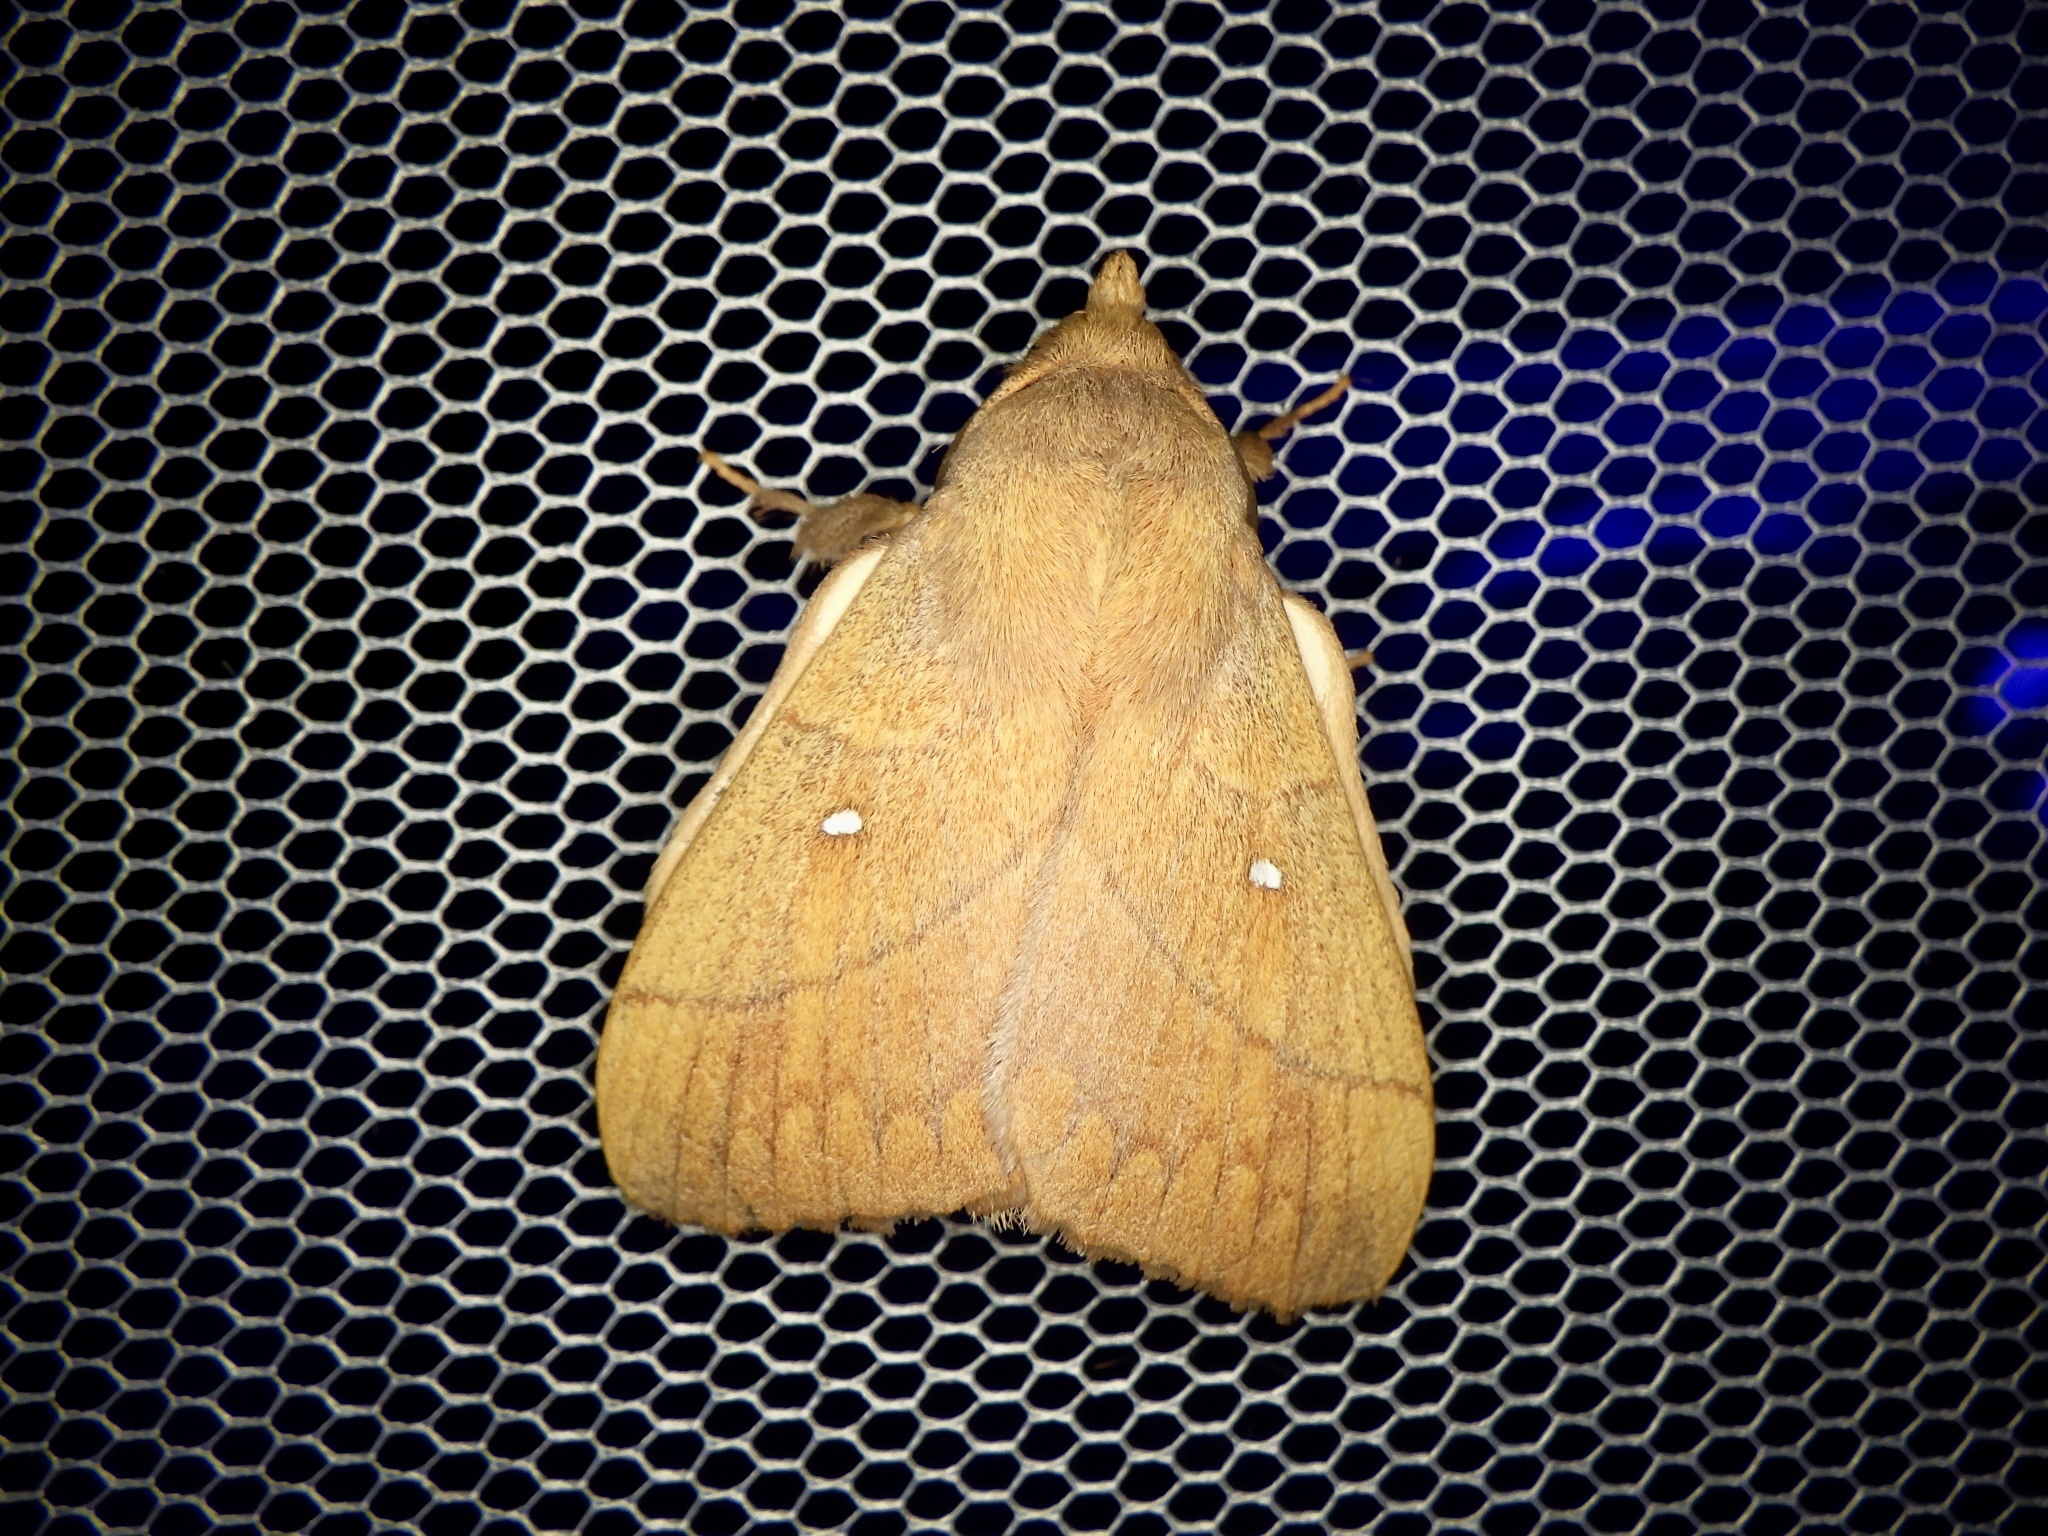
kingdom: Animalia
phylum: Arthropoda
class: Insecta
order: Lepidoptera
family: Lasiocampidae
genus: Odonestis
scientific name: Odonestis pruni
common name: Plum lappet
